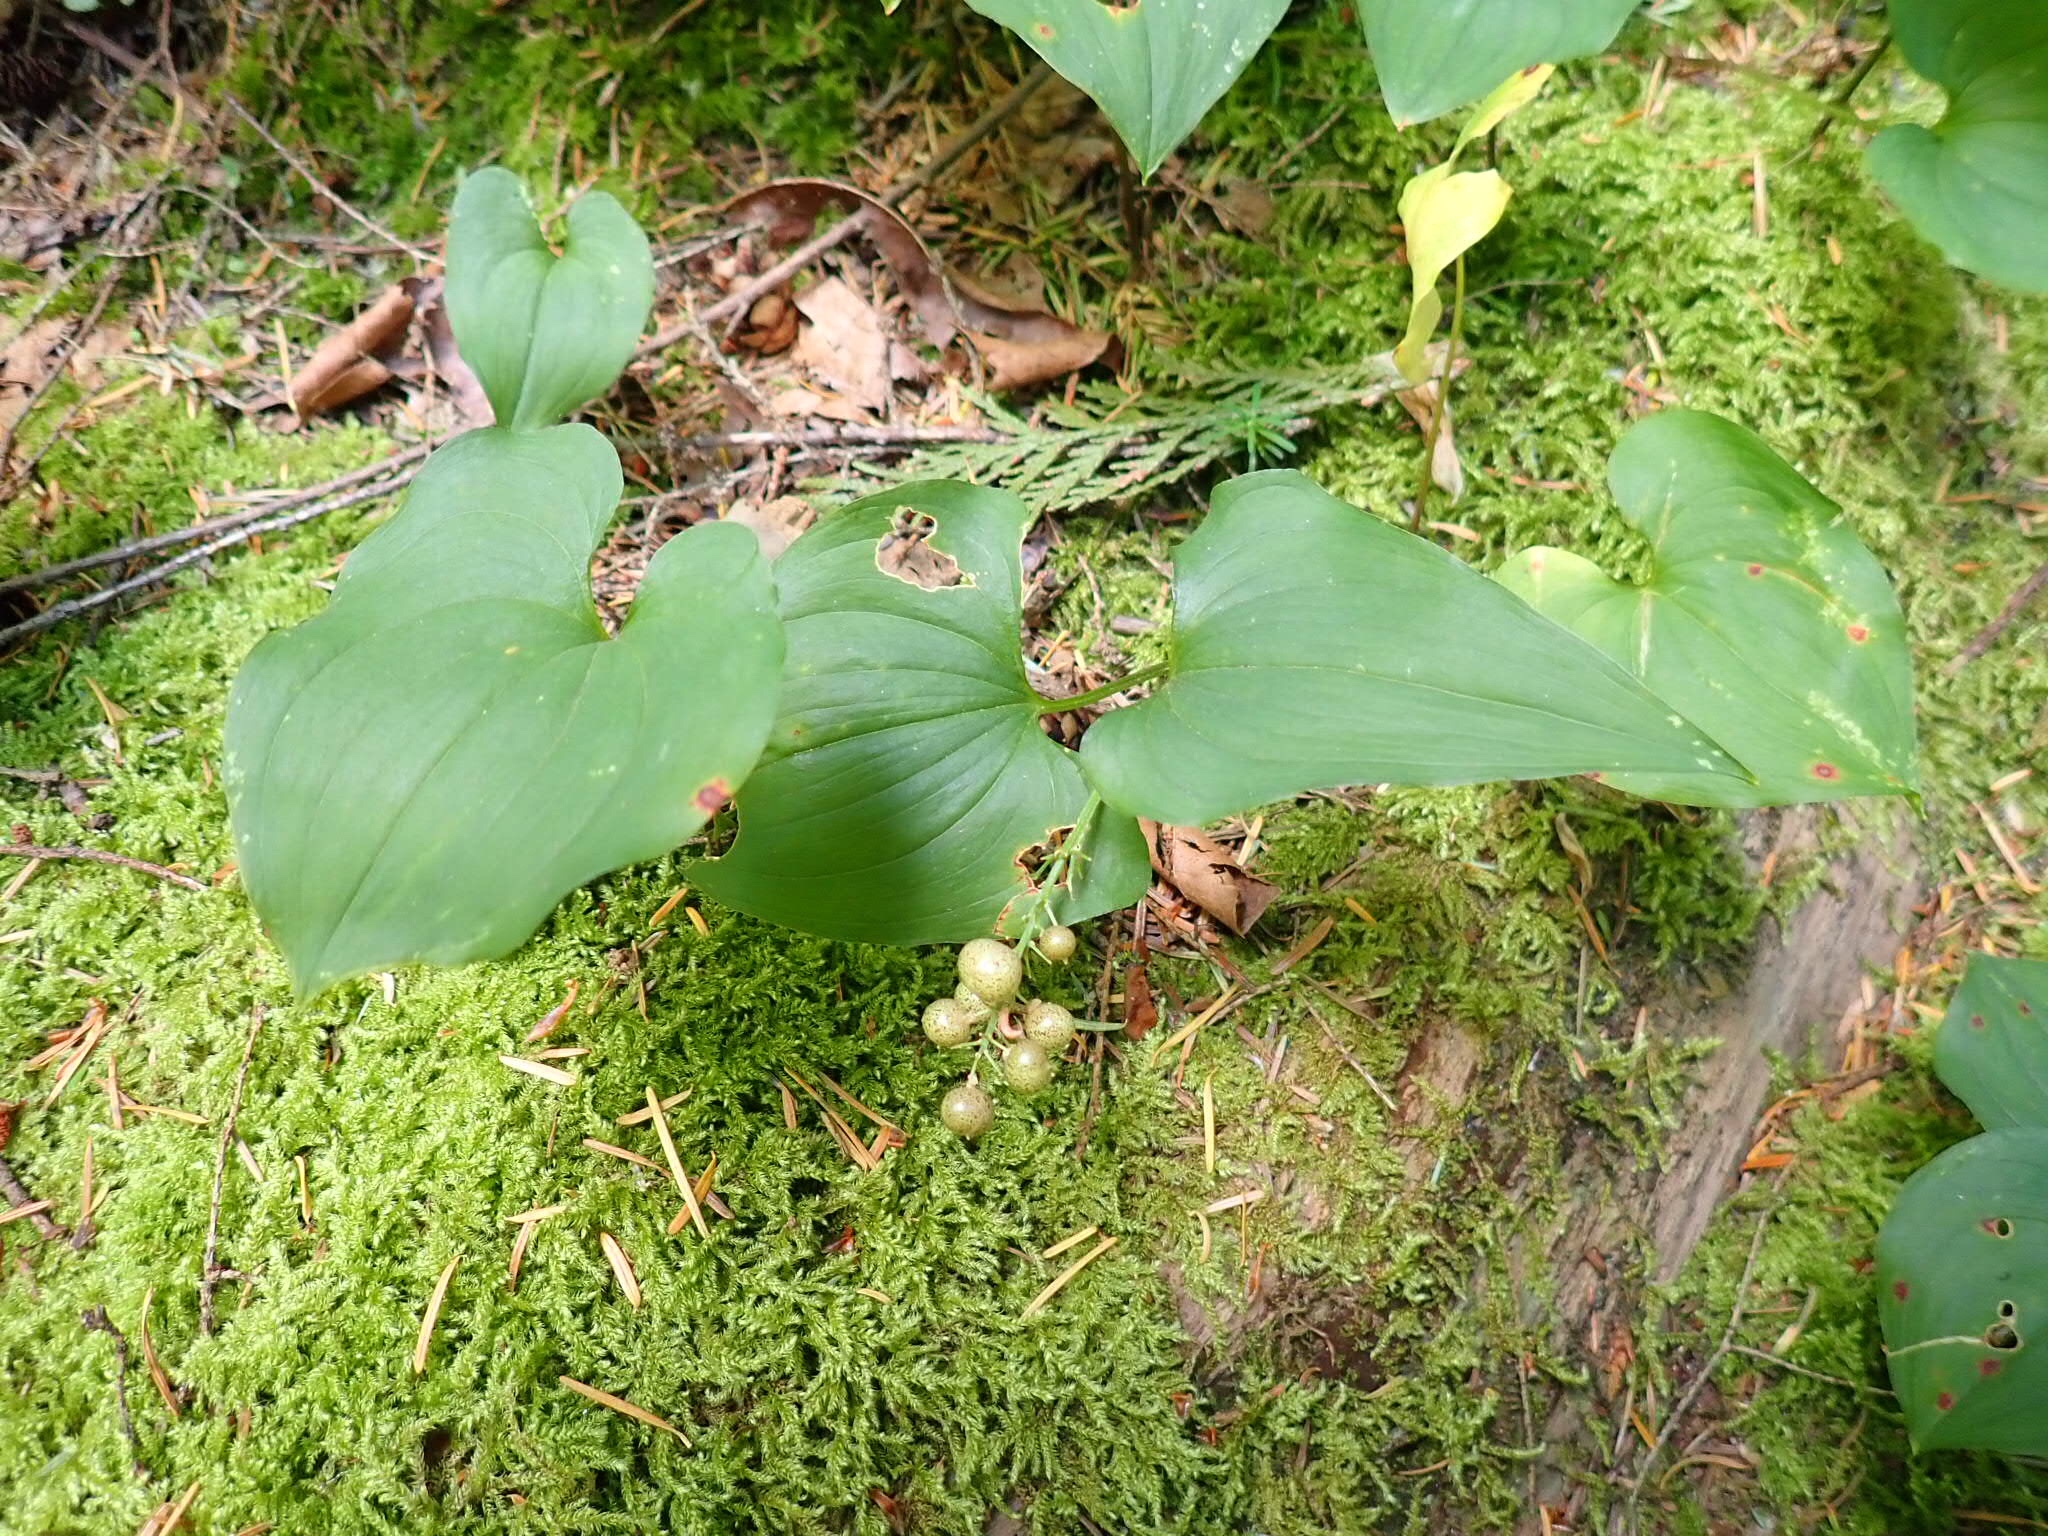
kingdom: Plantae
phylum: Tracheophyta
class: Liliopsida
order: Asparagales
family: Asparagaceae
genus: Maianthemum
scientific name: Maianthemum dilatatum
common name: False lily-of-the-valley
